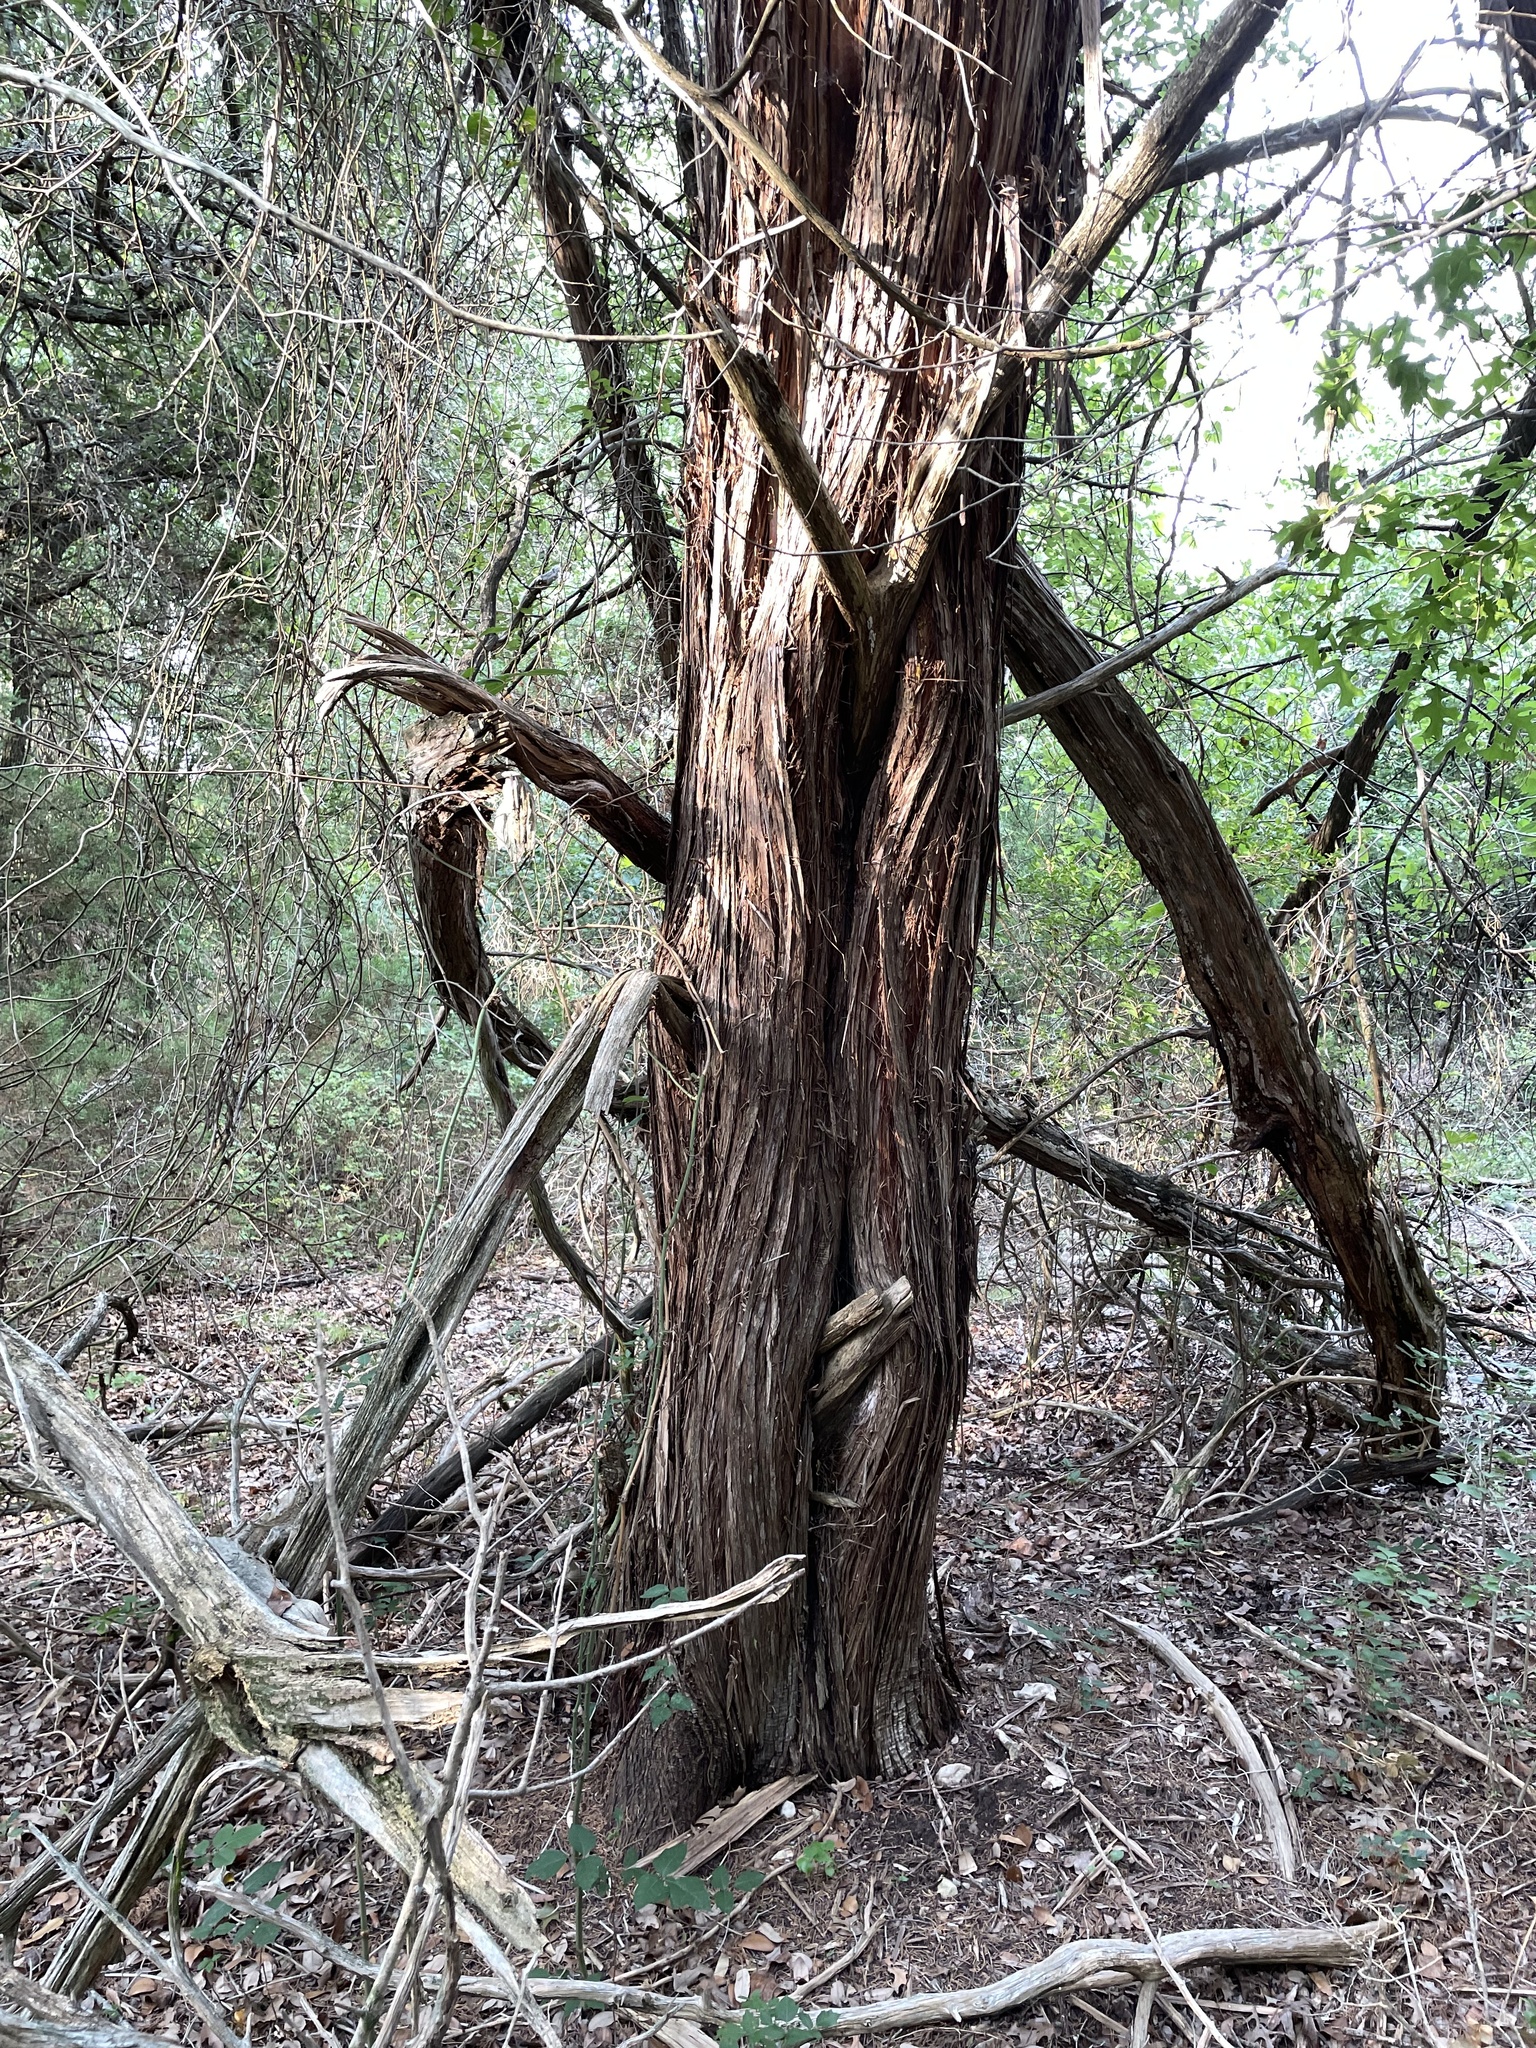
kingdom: Plantae
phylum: Tracheophyta
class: Pinopsida
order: Pinales
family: Cupressaceae
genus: Juniperus
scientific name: Juniperus ashei
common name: Mexican juniper
